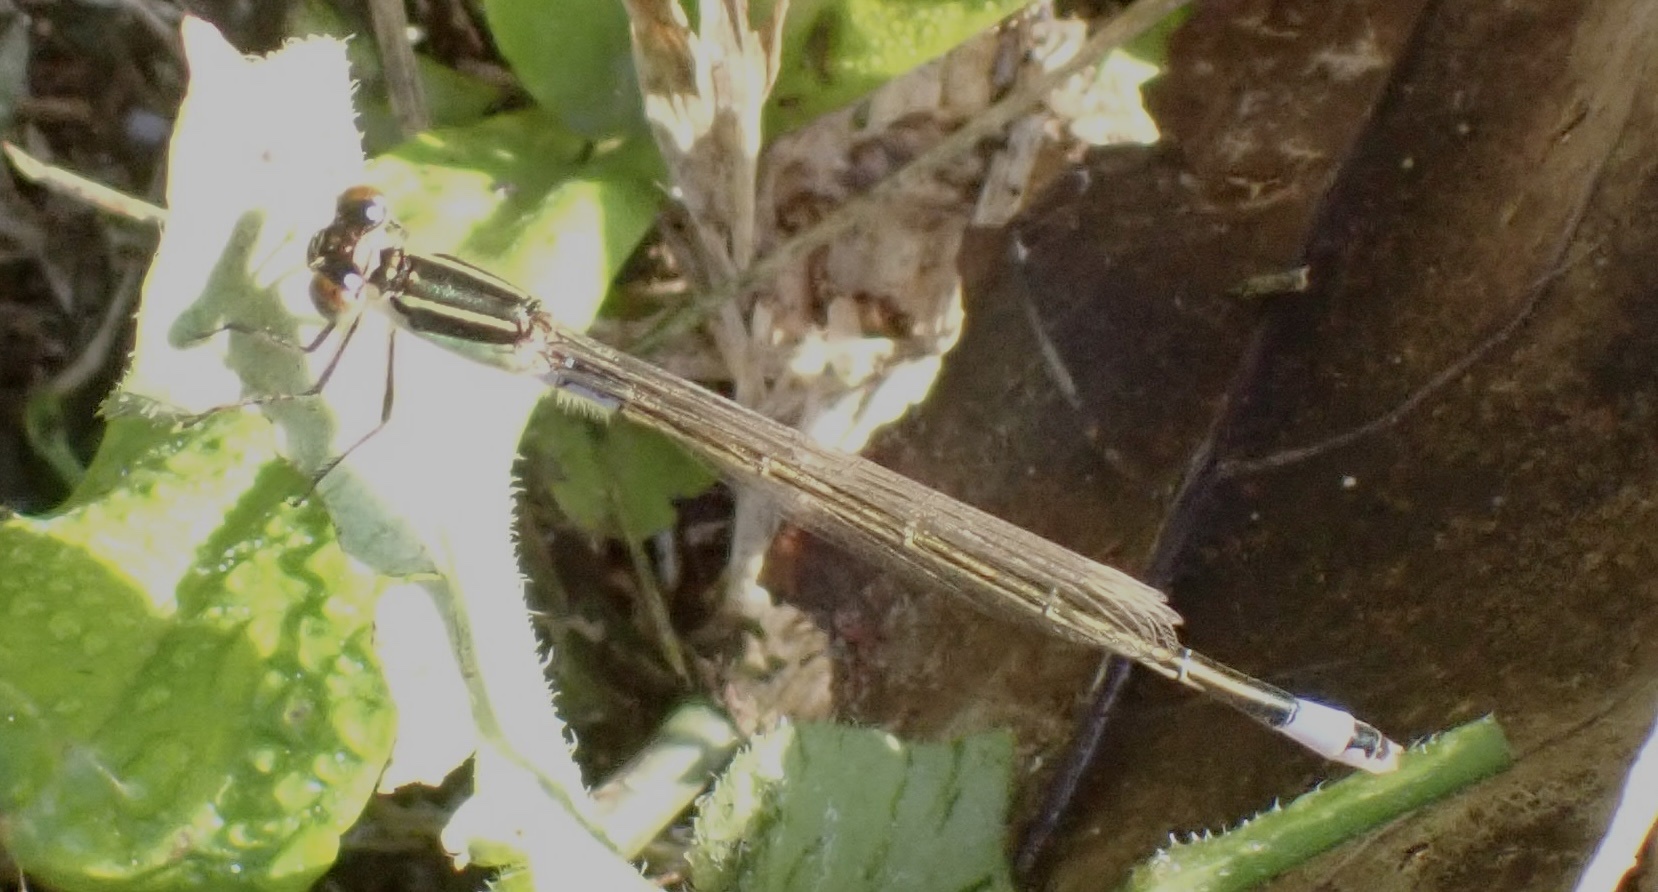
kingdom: Animalia
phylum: Arthropoda
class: Insecta
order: Odonata
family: Coenagrionidae
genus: Ischnura
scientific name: Ischnura senegalensis
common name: Tropical bluetail
